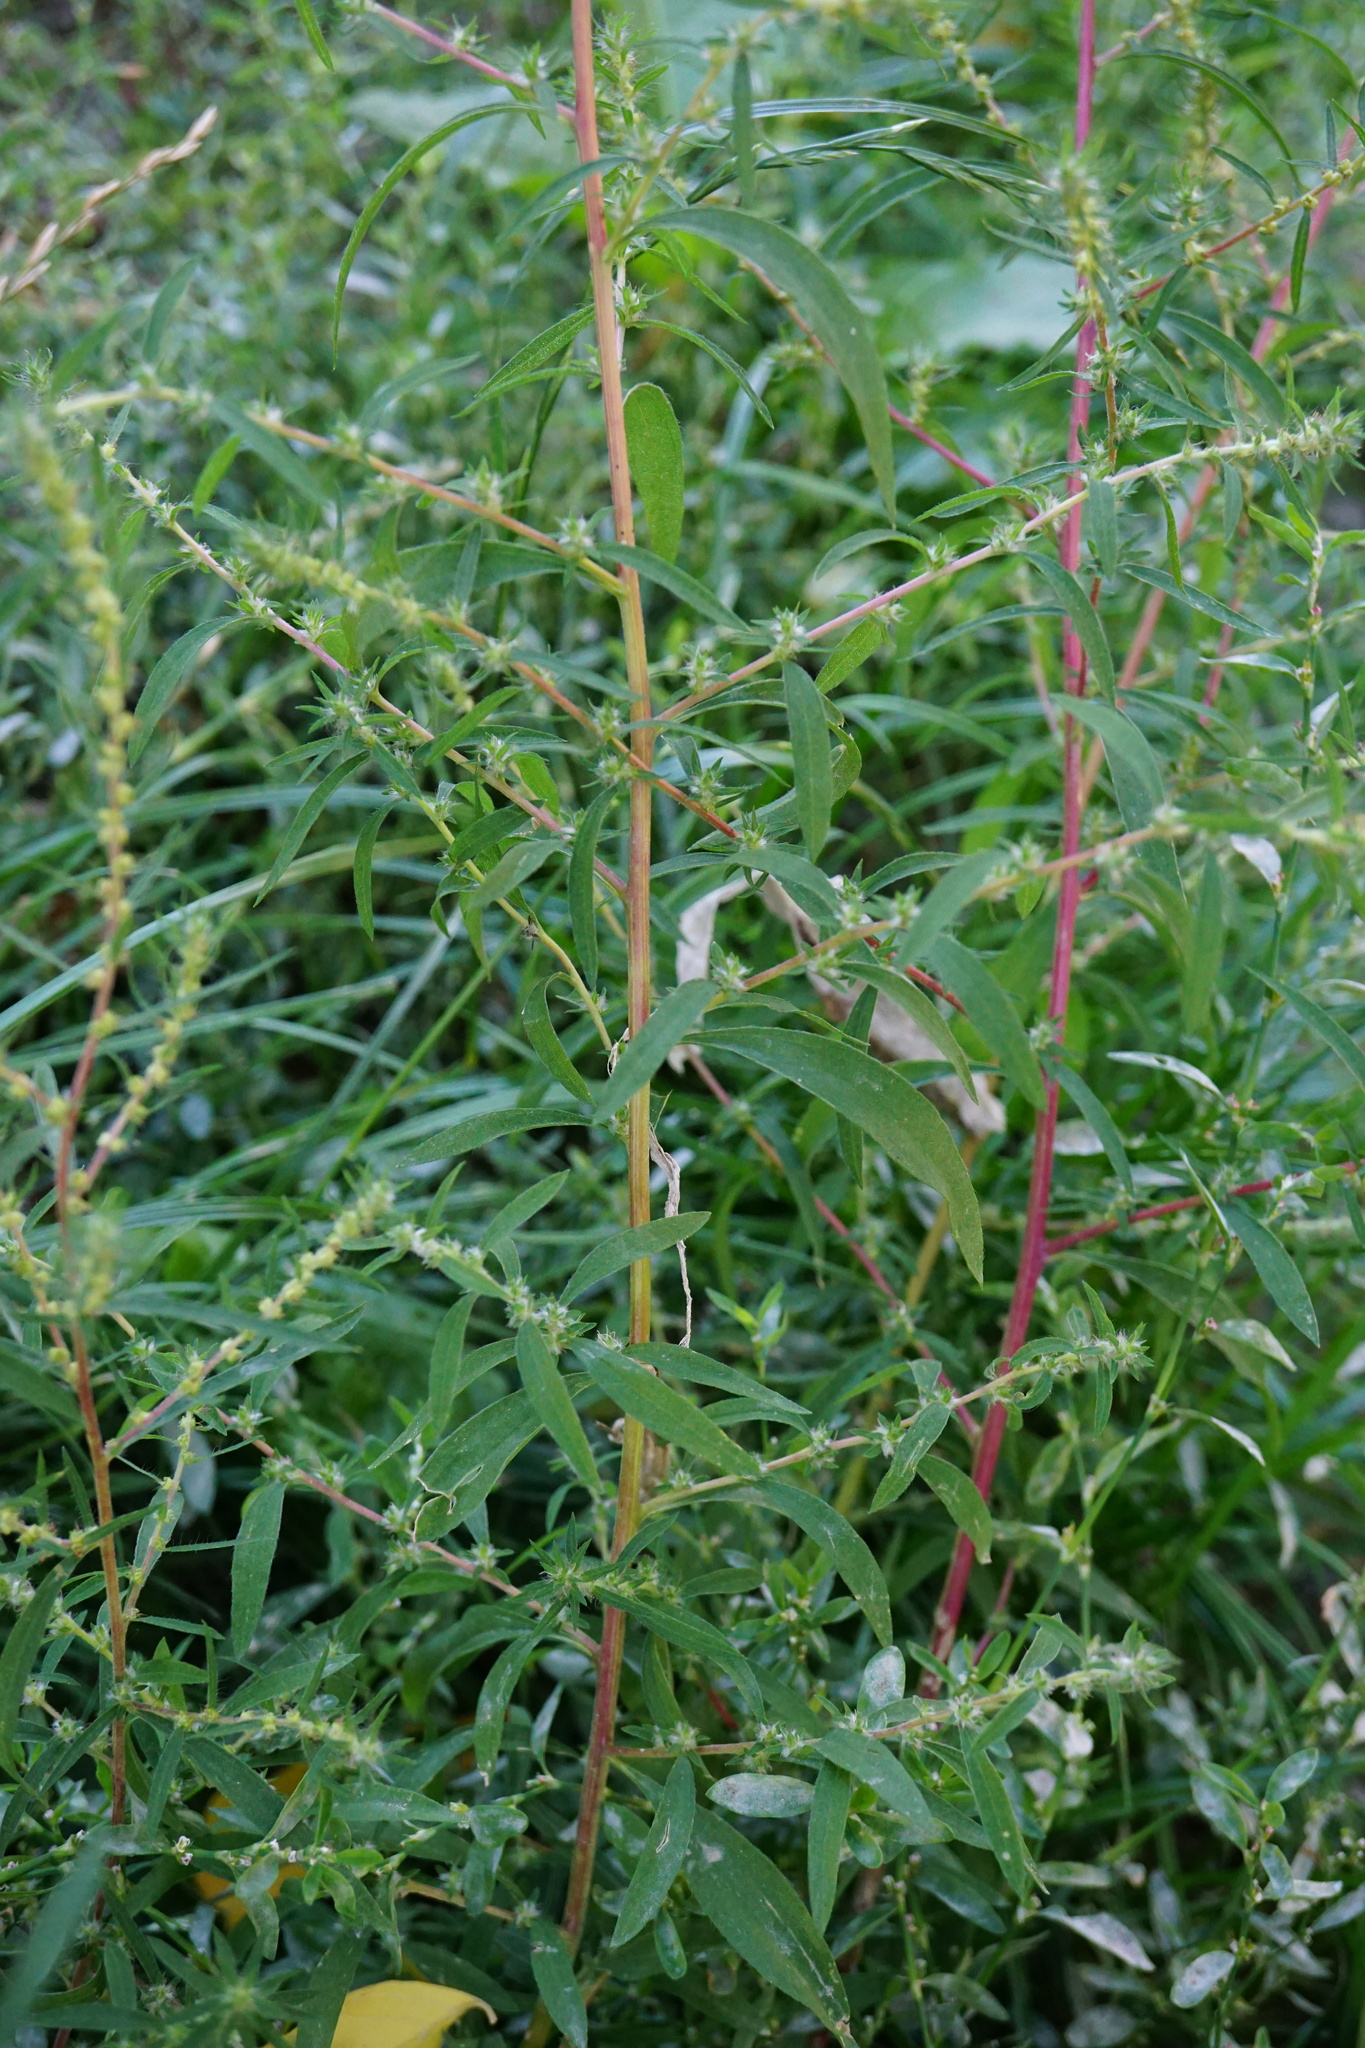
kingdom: Plantae
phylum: Tracheophyta
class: Magnoliopsida
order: Caryophyllales
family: Amaranthaceae
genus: Bassia
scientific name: Bassia scoparia
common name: Belvedere
